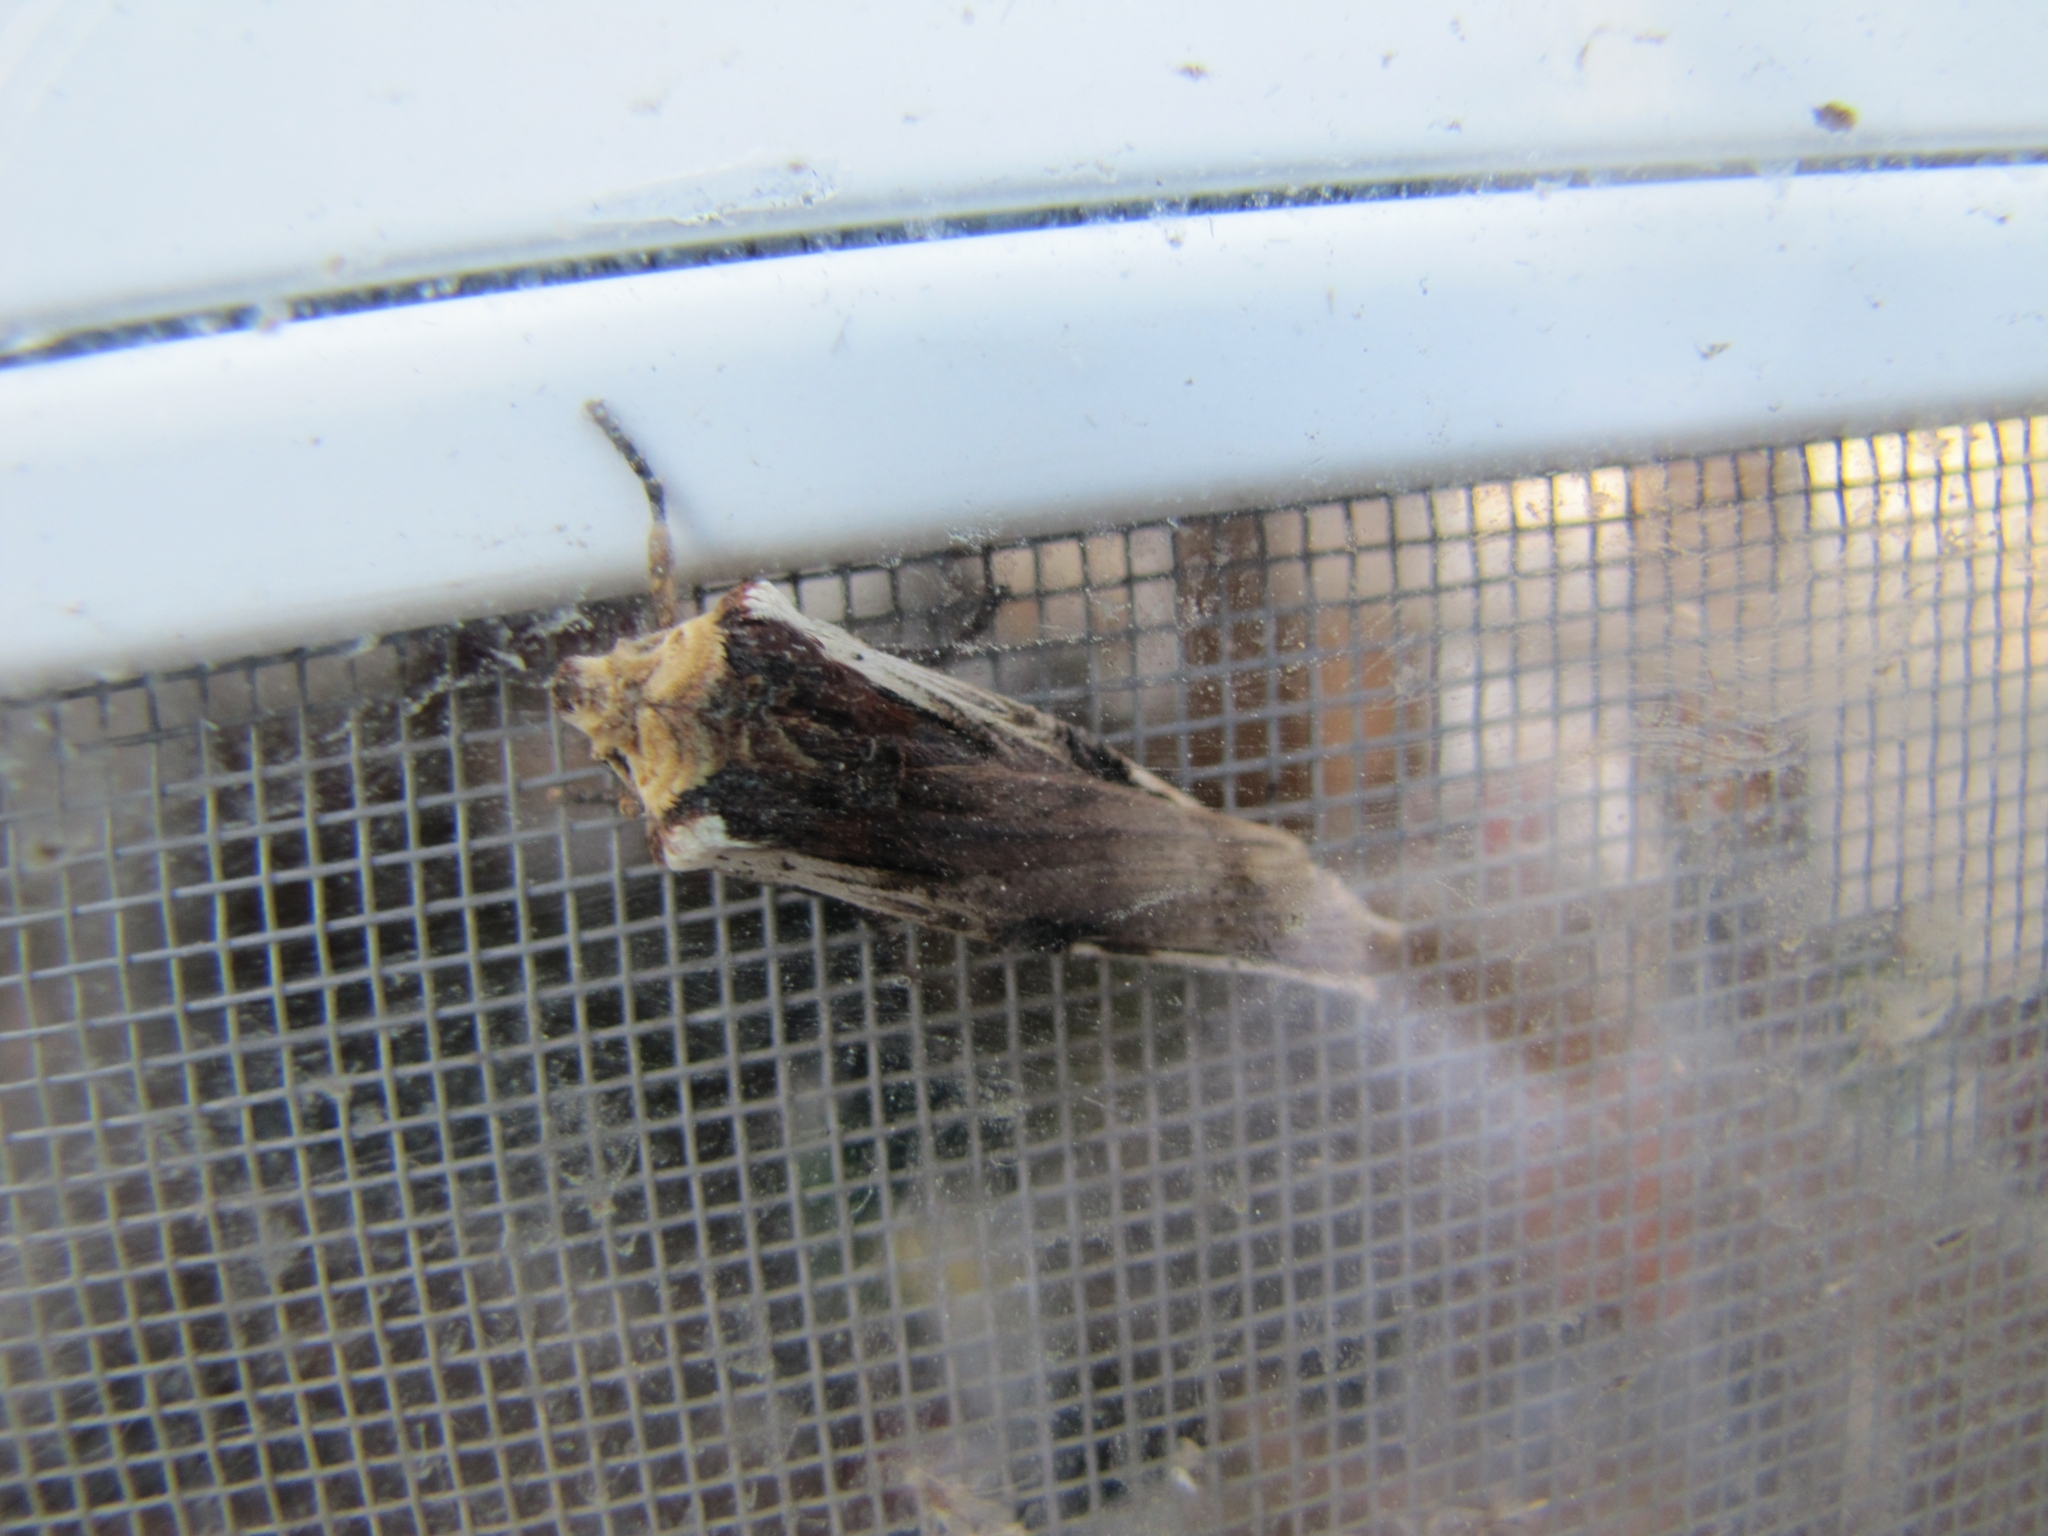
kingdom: Animalia
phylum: Arthropoda
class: Insecta
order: Lepidoptera
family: Noctuidae
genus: Xylena
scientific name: Xylena curvimacula
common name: Dot-and-dash swordgrass moth
